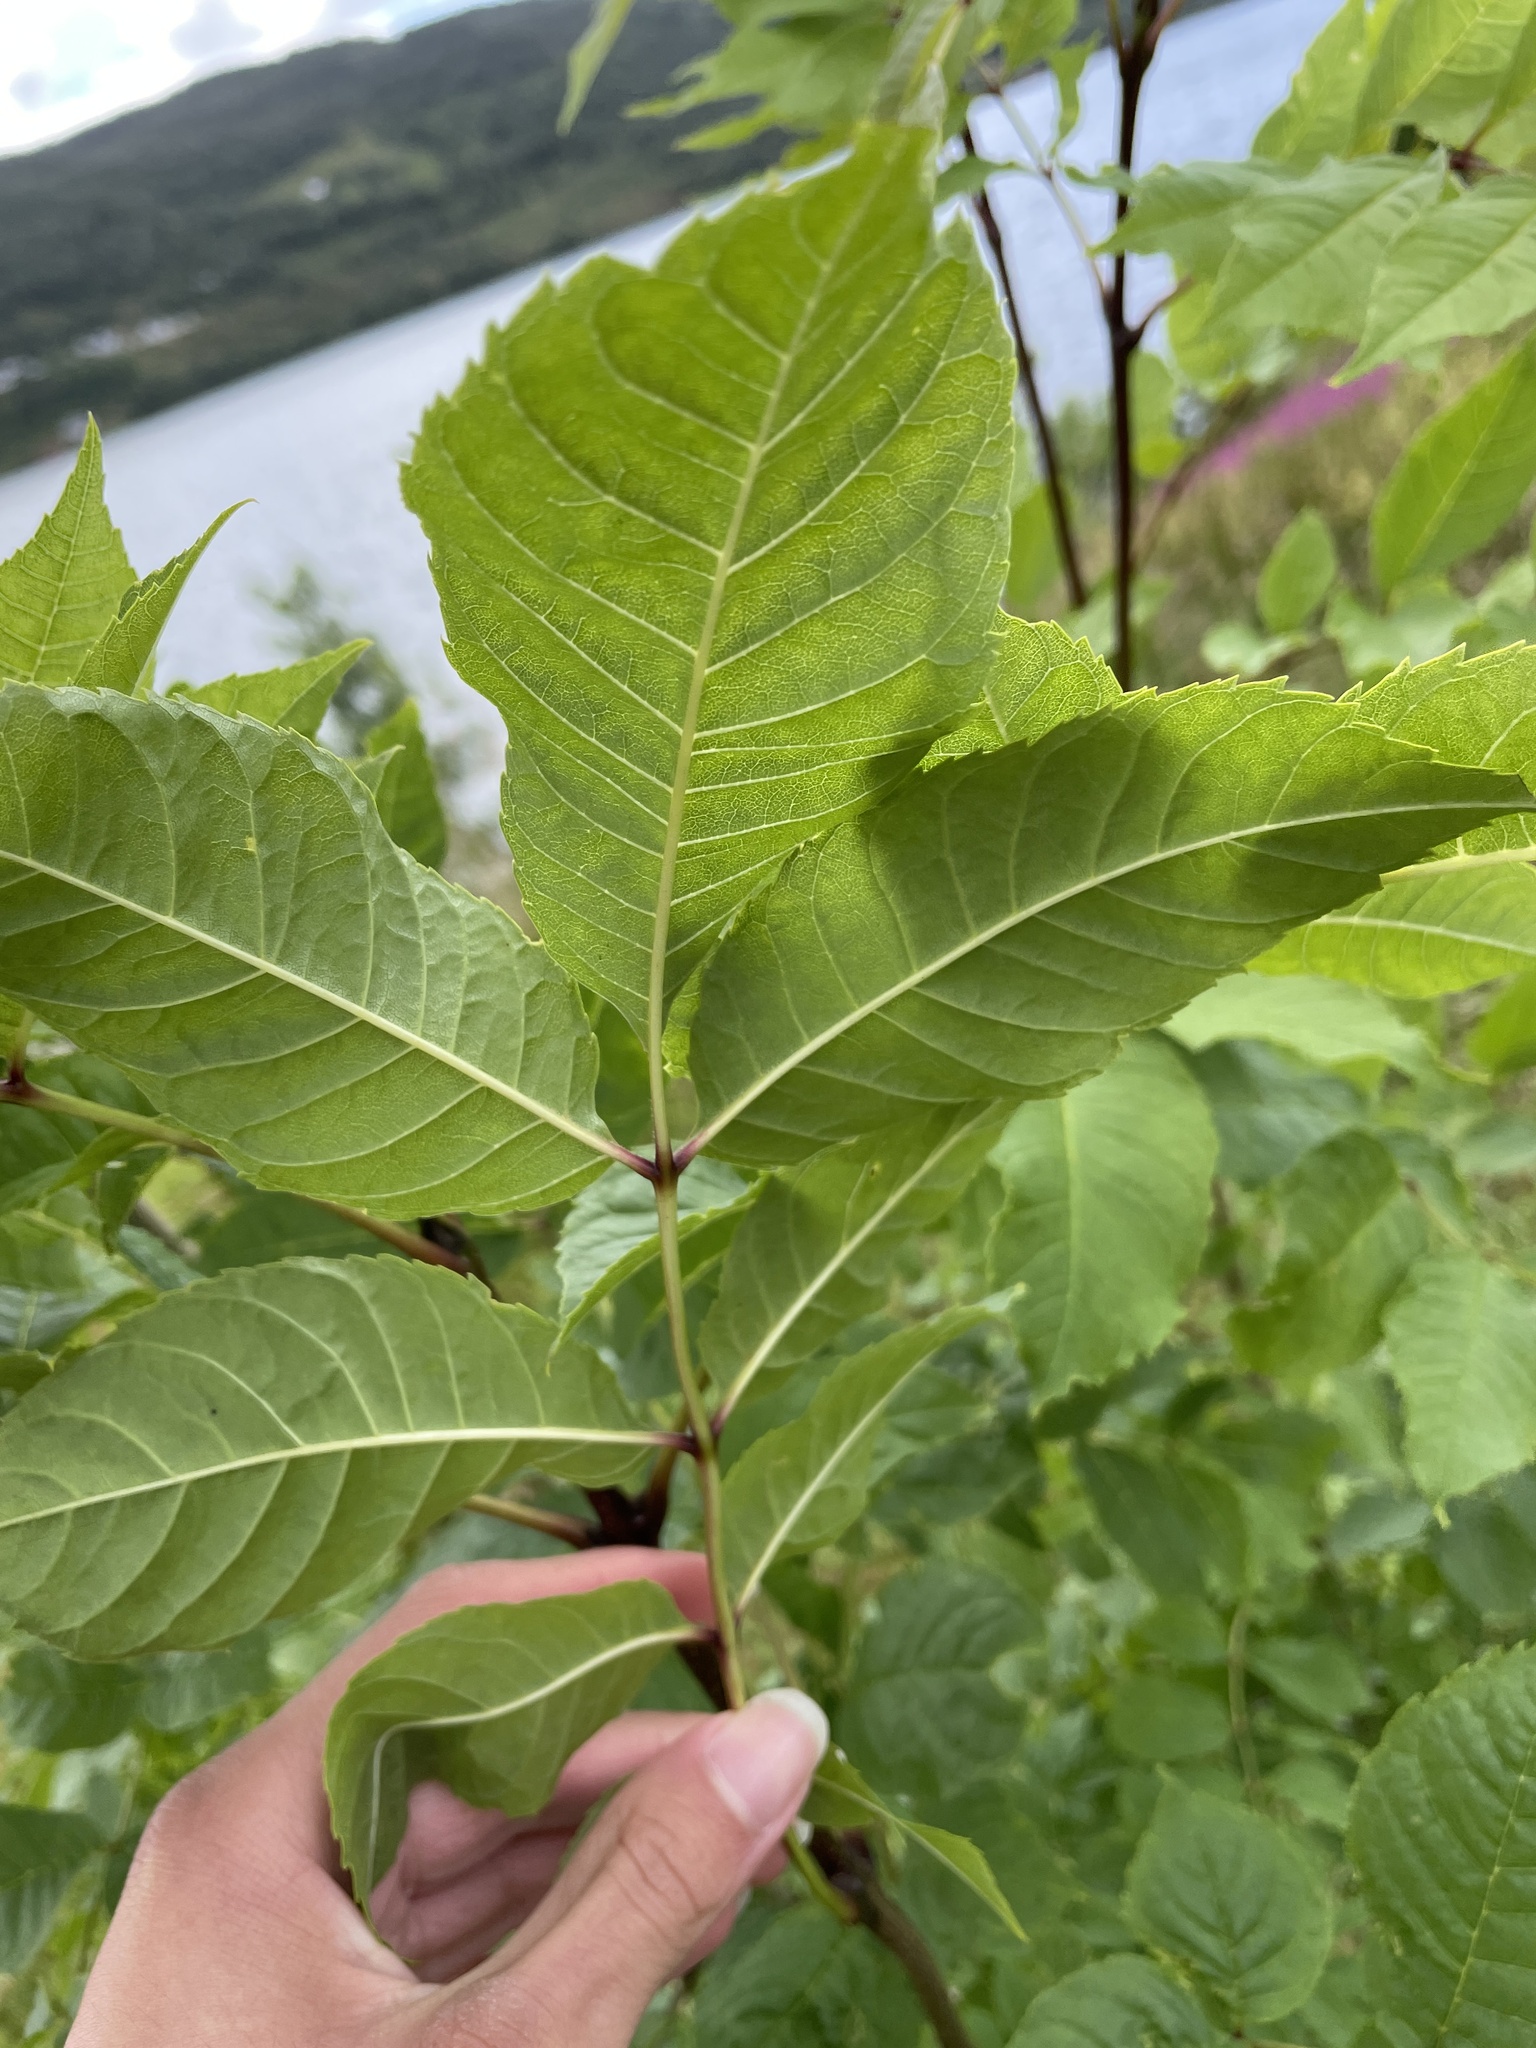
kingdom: Plantae
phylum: Tracheophyta
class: Magnoliopsida
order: Lamiales
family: Oleaceae
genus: Fraxinus
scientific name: Fraxinus excelsior
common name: European ash
